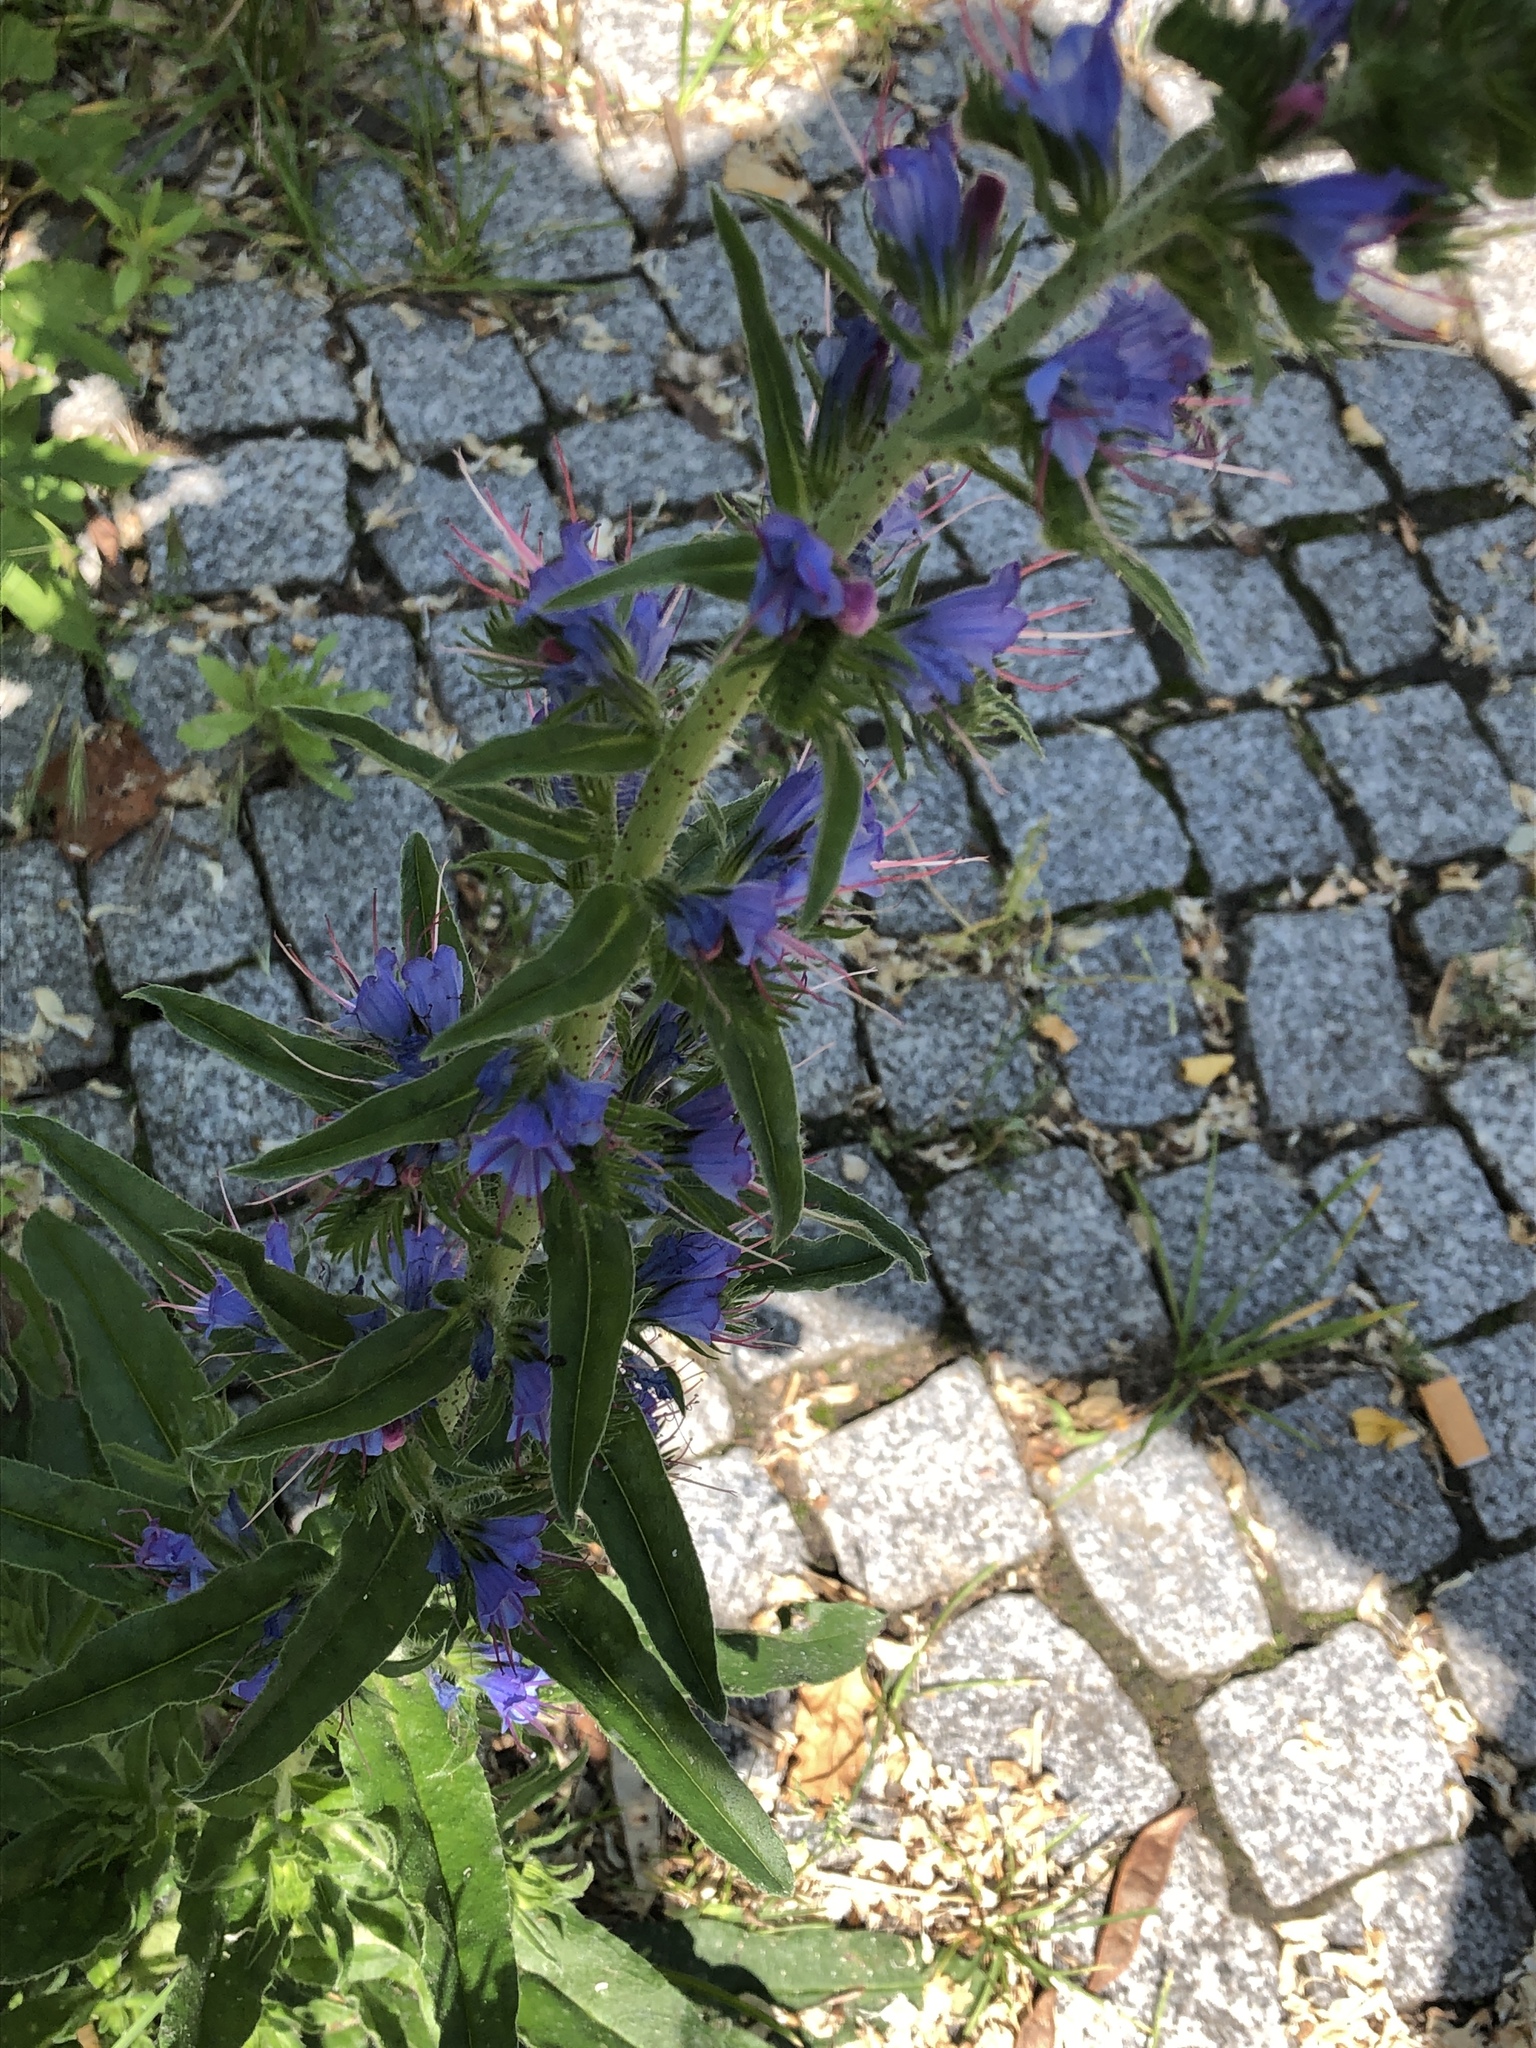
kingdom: Plantae
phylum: Tracheophyta
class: Magnoliopsida
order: Boraginales
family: Boraginaceae
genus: Echium
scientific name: Echium vulgare
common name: Common viper's bugloss
